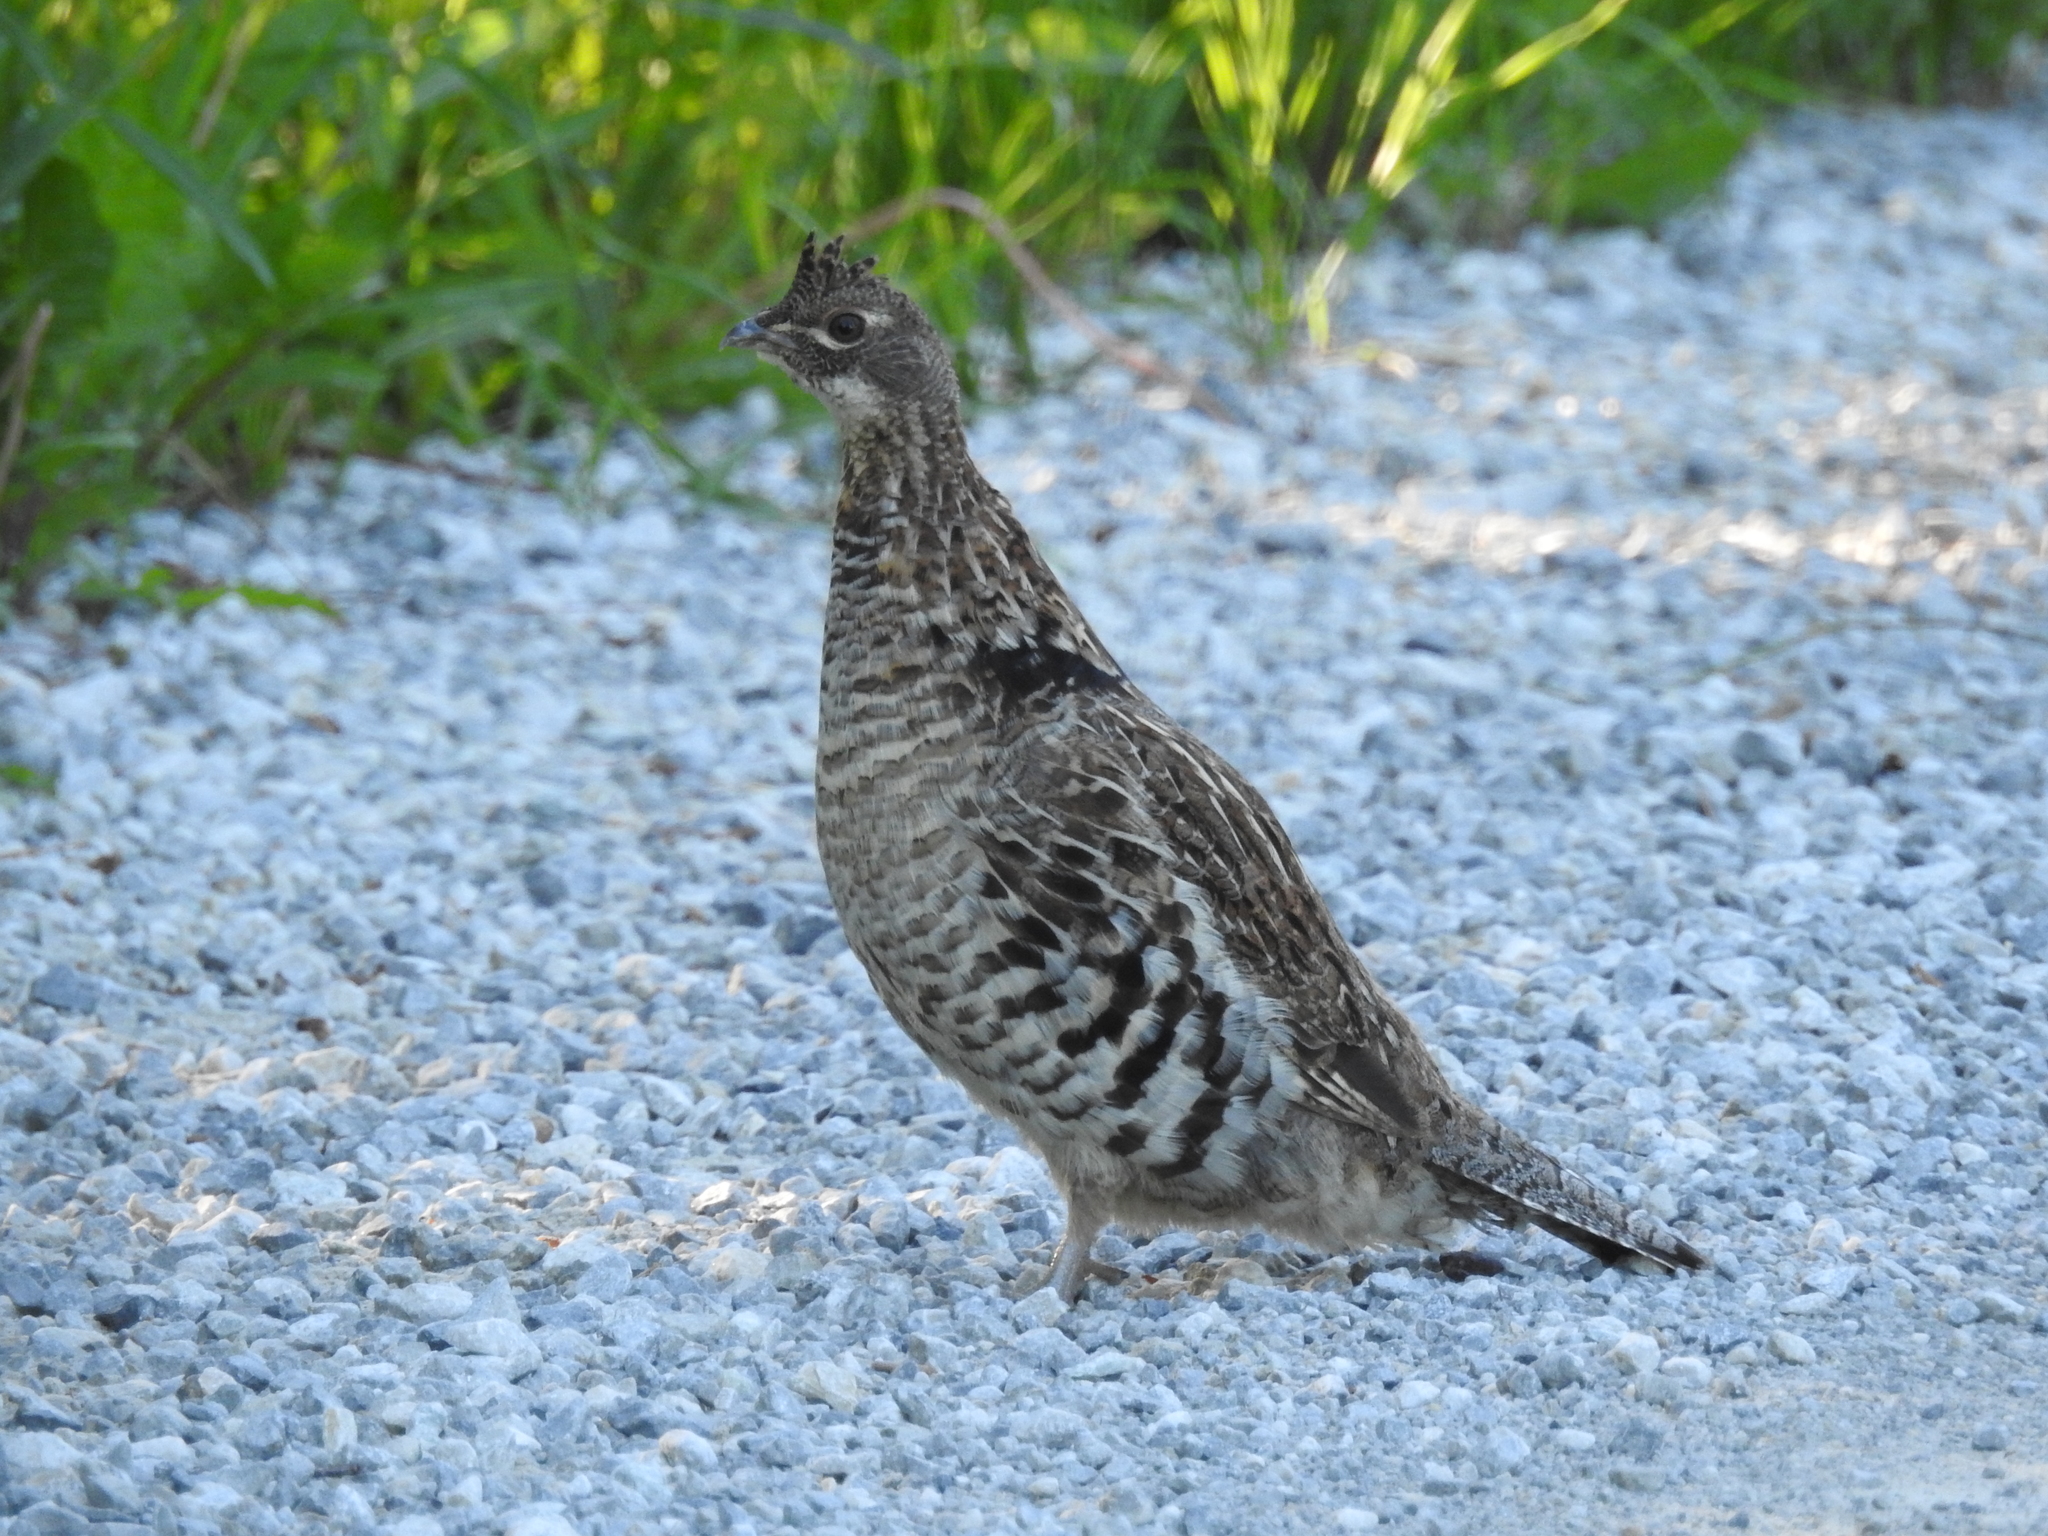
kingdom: Animalia
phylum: Chordata
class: Aves
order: Galliformes
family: Phasianidae
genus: Bonasa
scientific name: Bonasa umbellus
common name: Ruffed grouse
